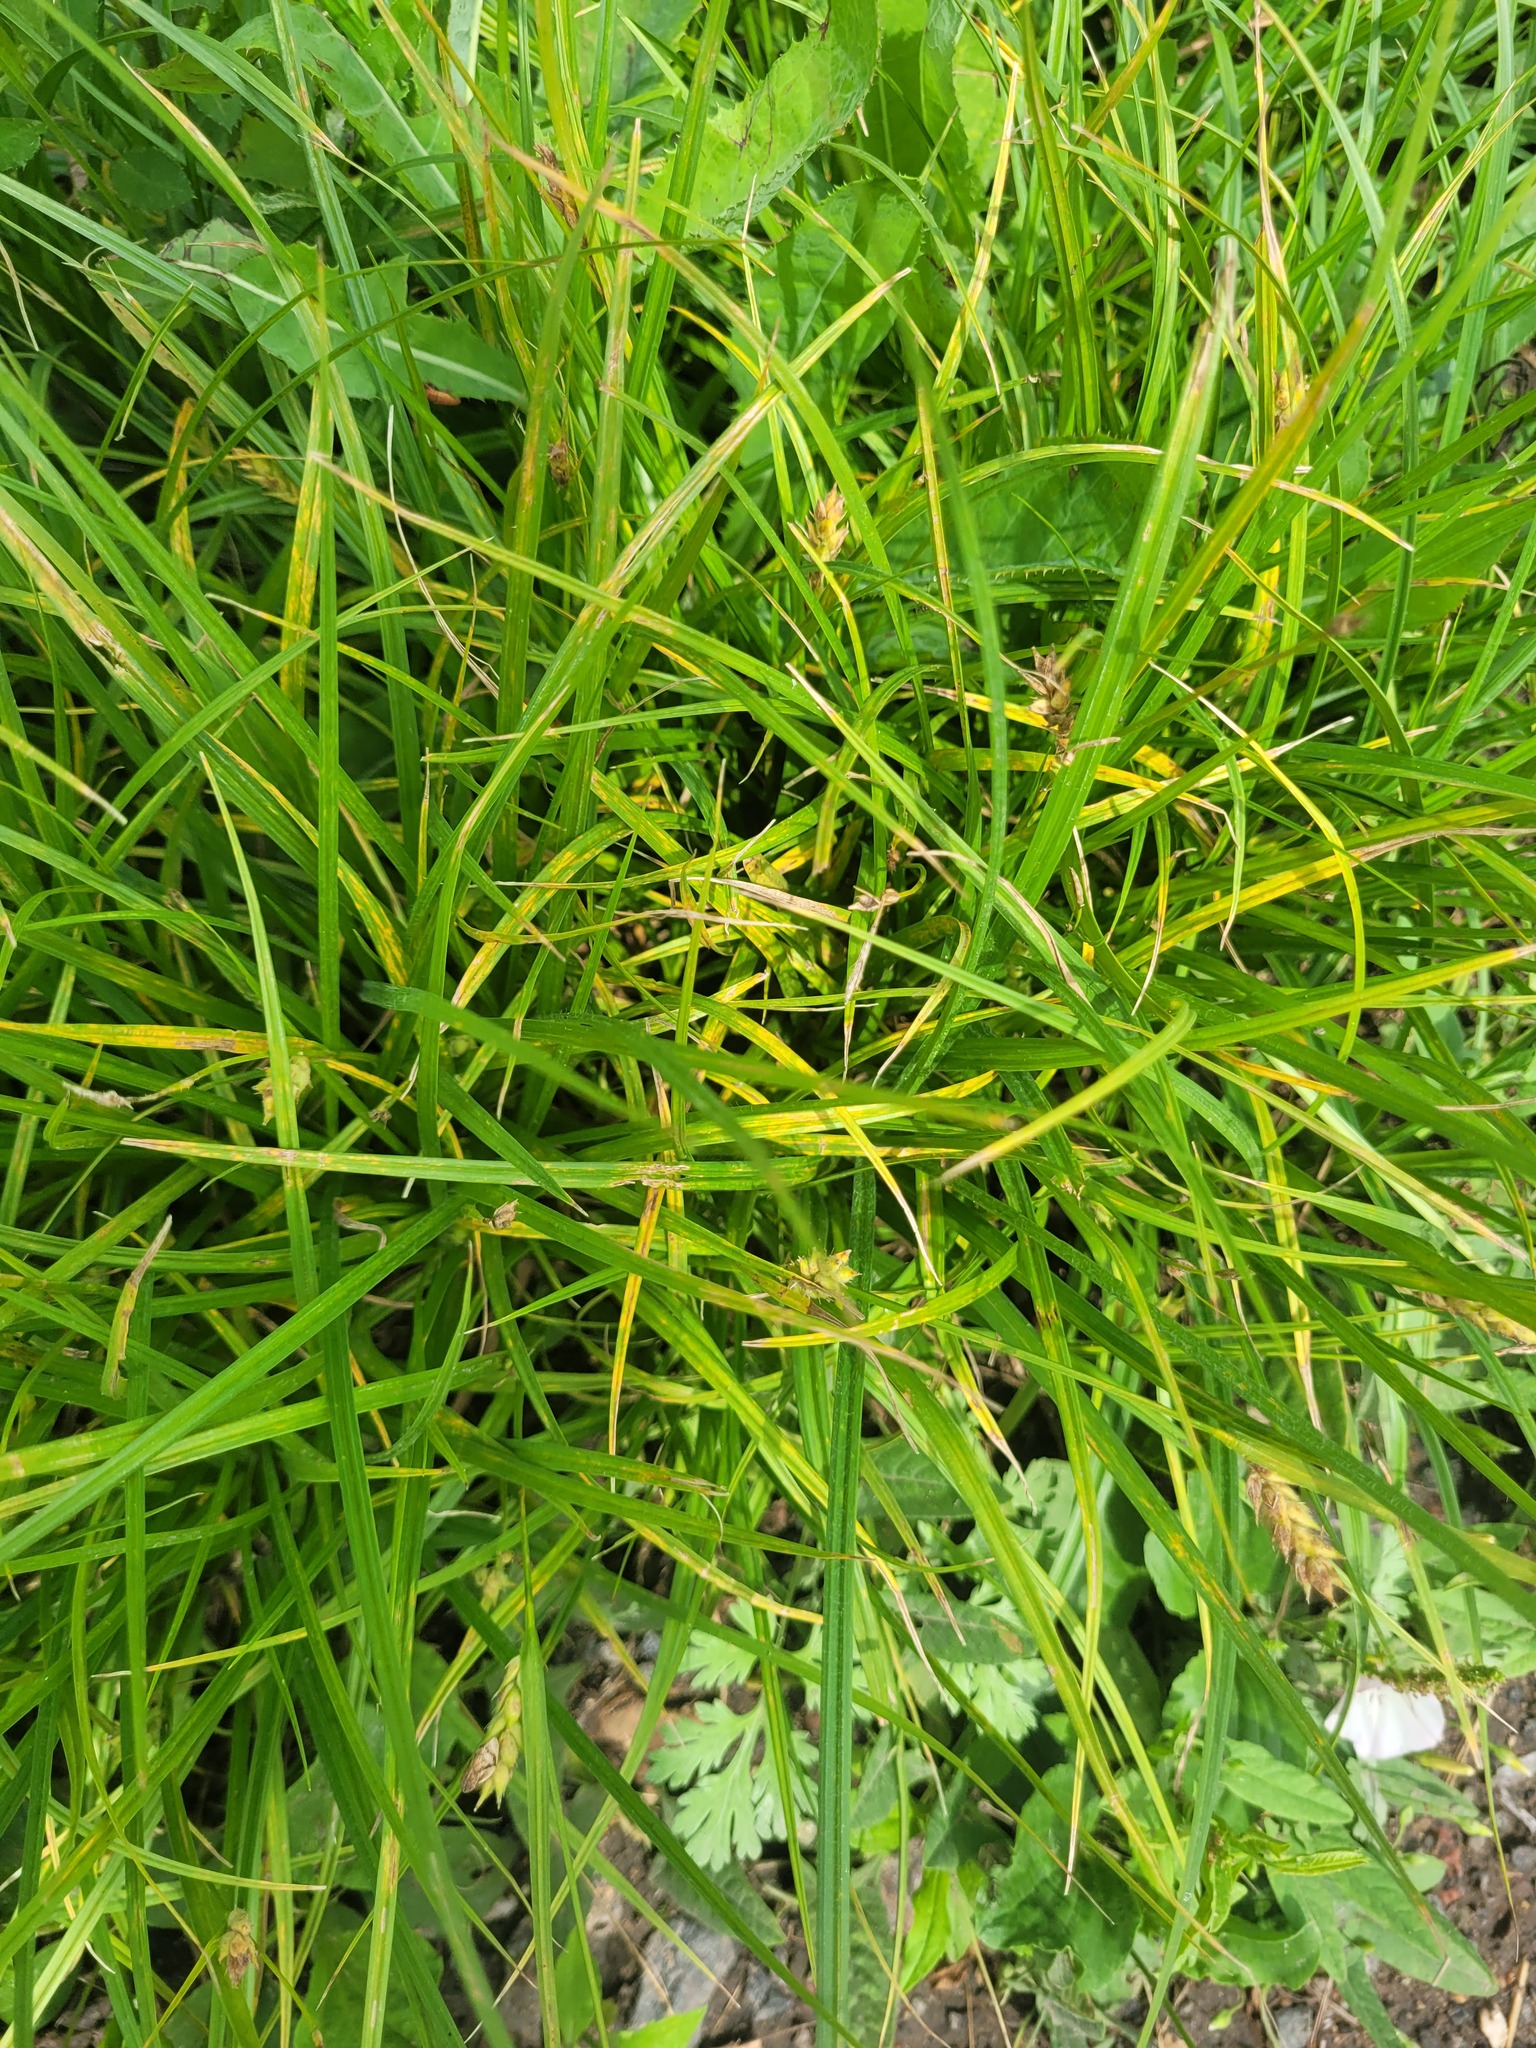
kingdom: Plantae
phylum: Tracheophyta
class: Liliopsida
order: Poales
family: Cyperaceae
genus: Carex
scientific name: Carex hirta
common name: Hairy sedge
